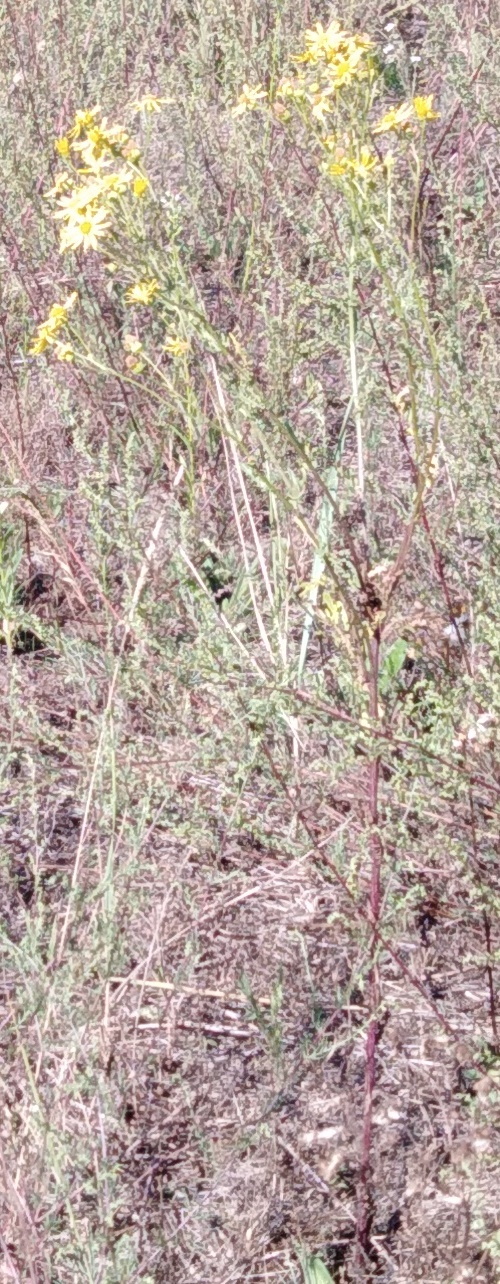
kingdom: Plantae
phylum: Tracheophyta
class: Magnoliopsida
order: Asterales
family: Asteraceae
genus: Jacobaea
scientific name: Jacobaea vulgaris
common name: Stinking willie
